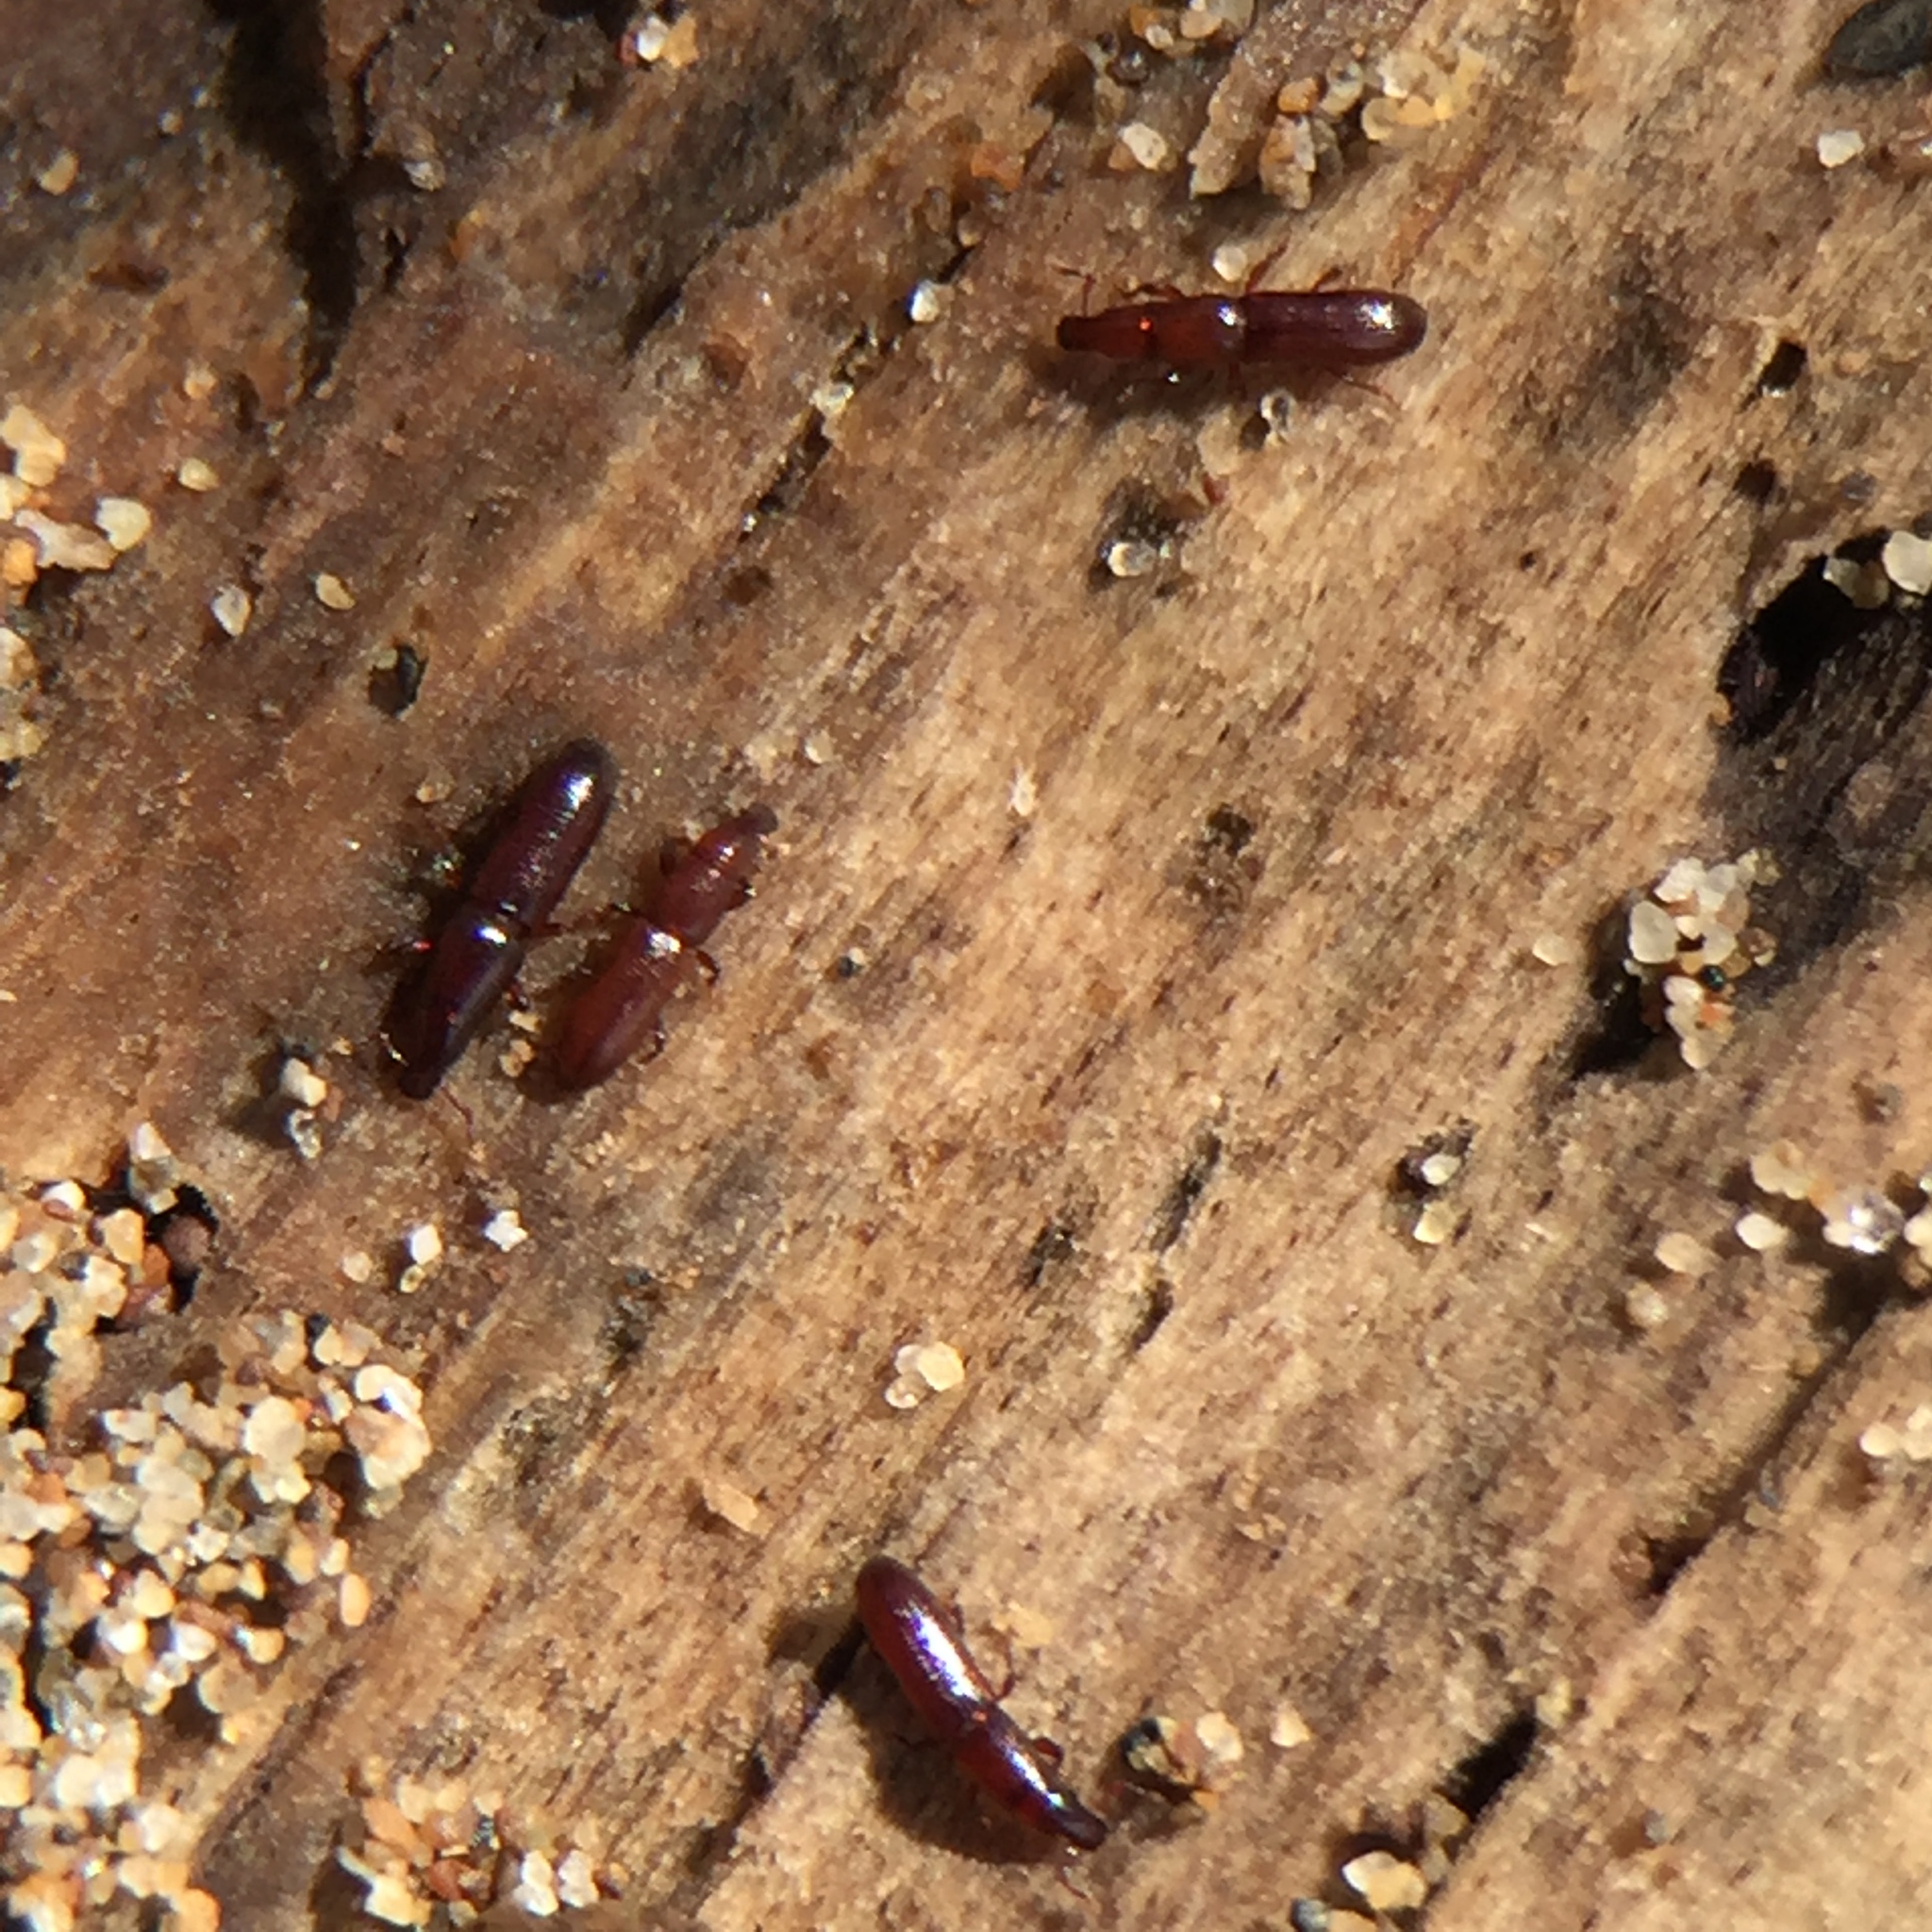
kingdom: Animalia
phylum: Arthropoda
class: Insecta
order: Coleoptera
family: Curculionidae
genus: Eutornus
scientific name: Eutornus littoralis
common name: Driftwood weevil
